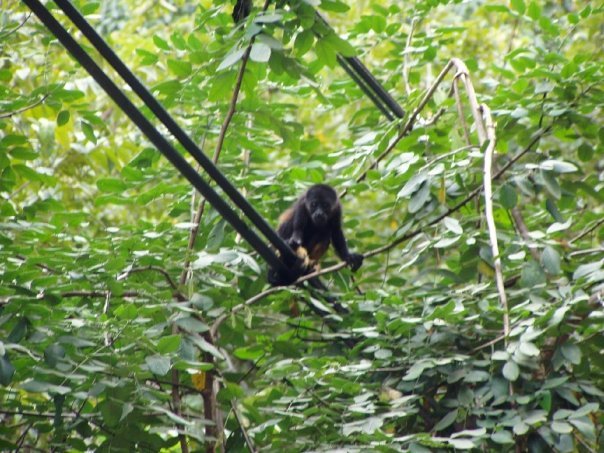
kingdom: Animalia
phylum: Chordata
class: Mammalia
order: Primates
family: Atelidae
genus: Alouatta
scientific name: Alouatta palliata
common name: Mantled howler
